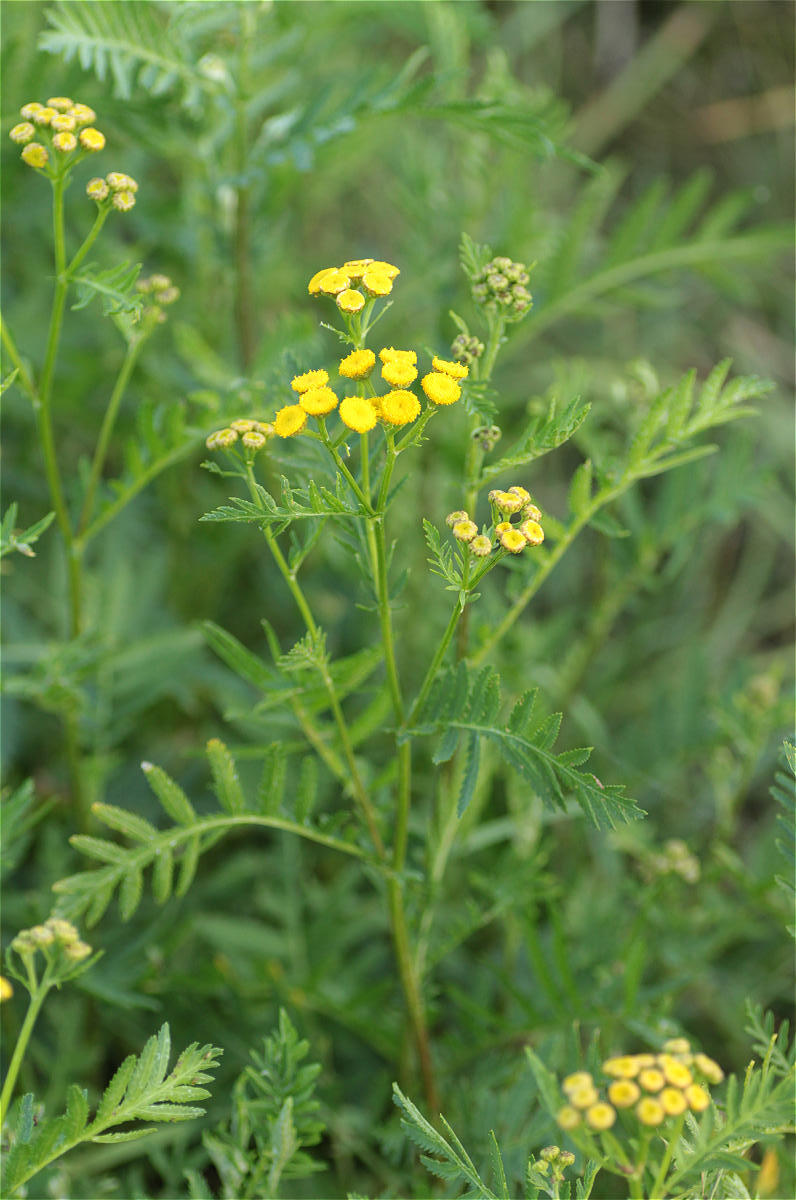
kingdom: Plantae
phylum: Tracheophyta
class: Magnoliopsida
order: Asterales
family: Asteraceae
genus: Tanacetum
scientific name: Tanacetum vulgare
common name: Common tansy
